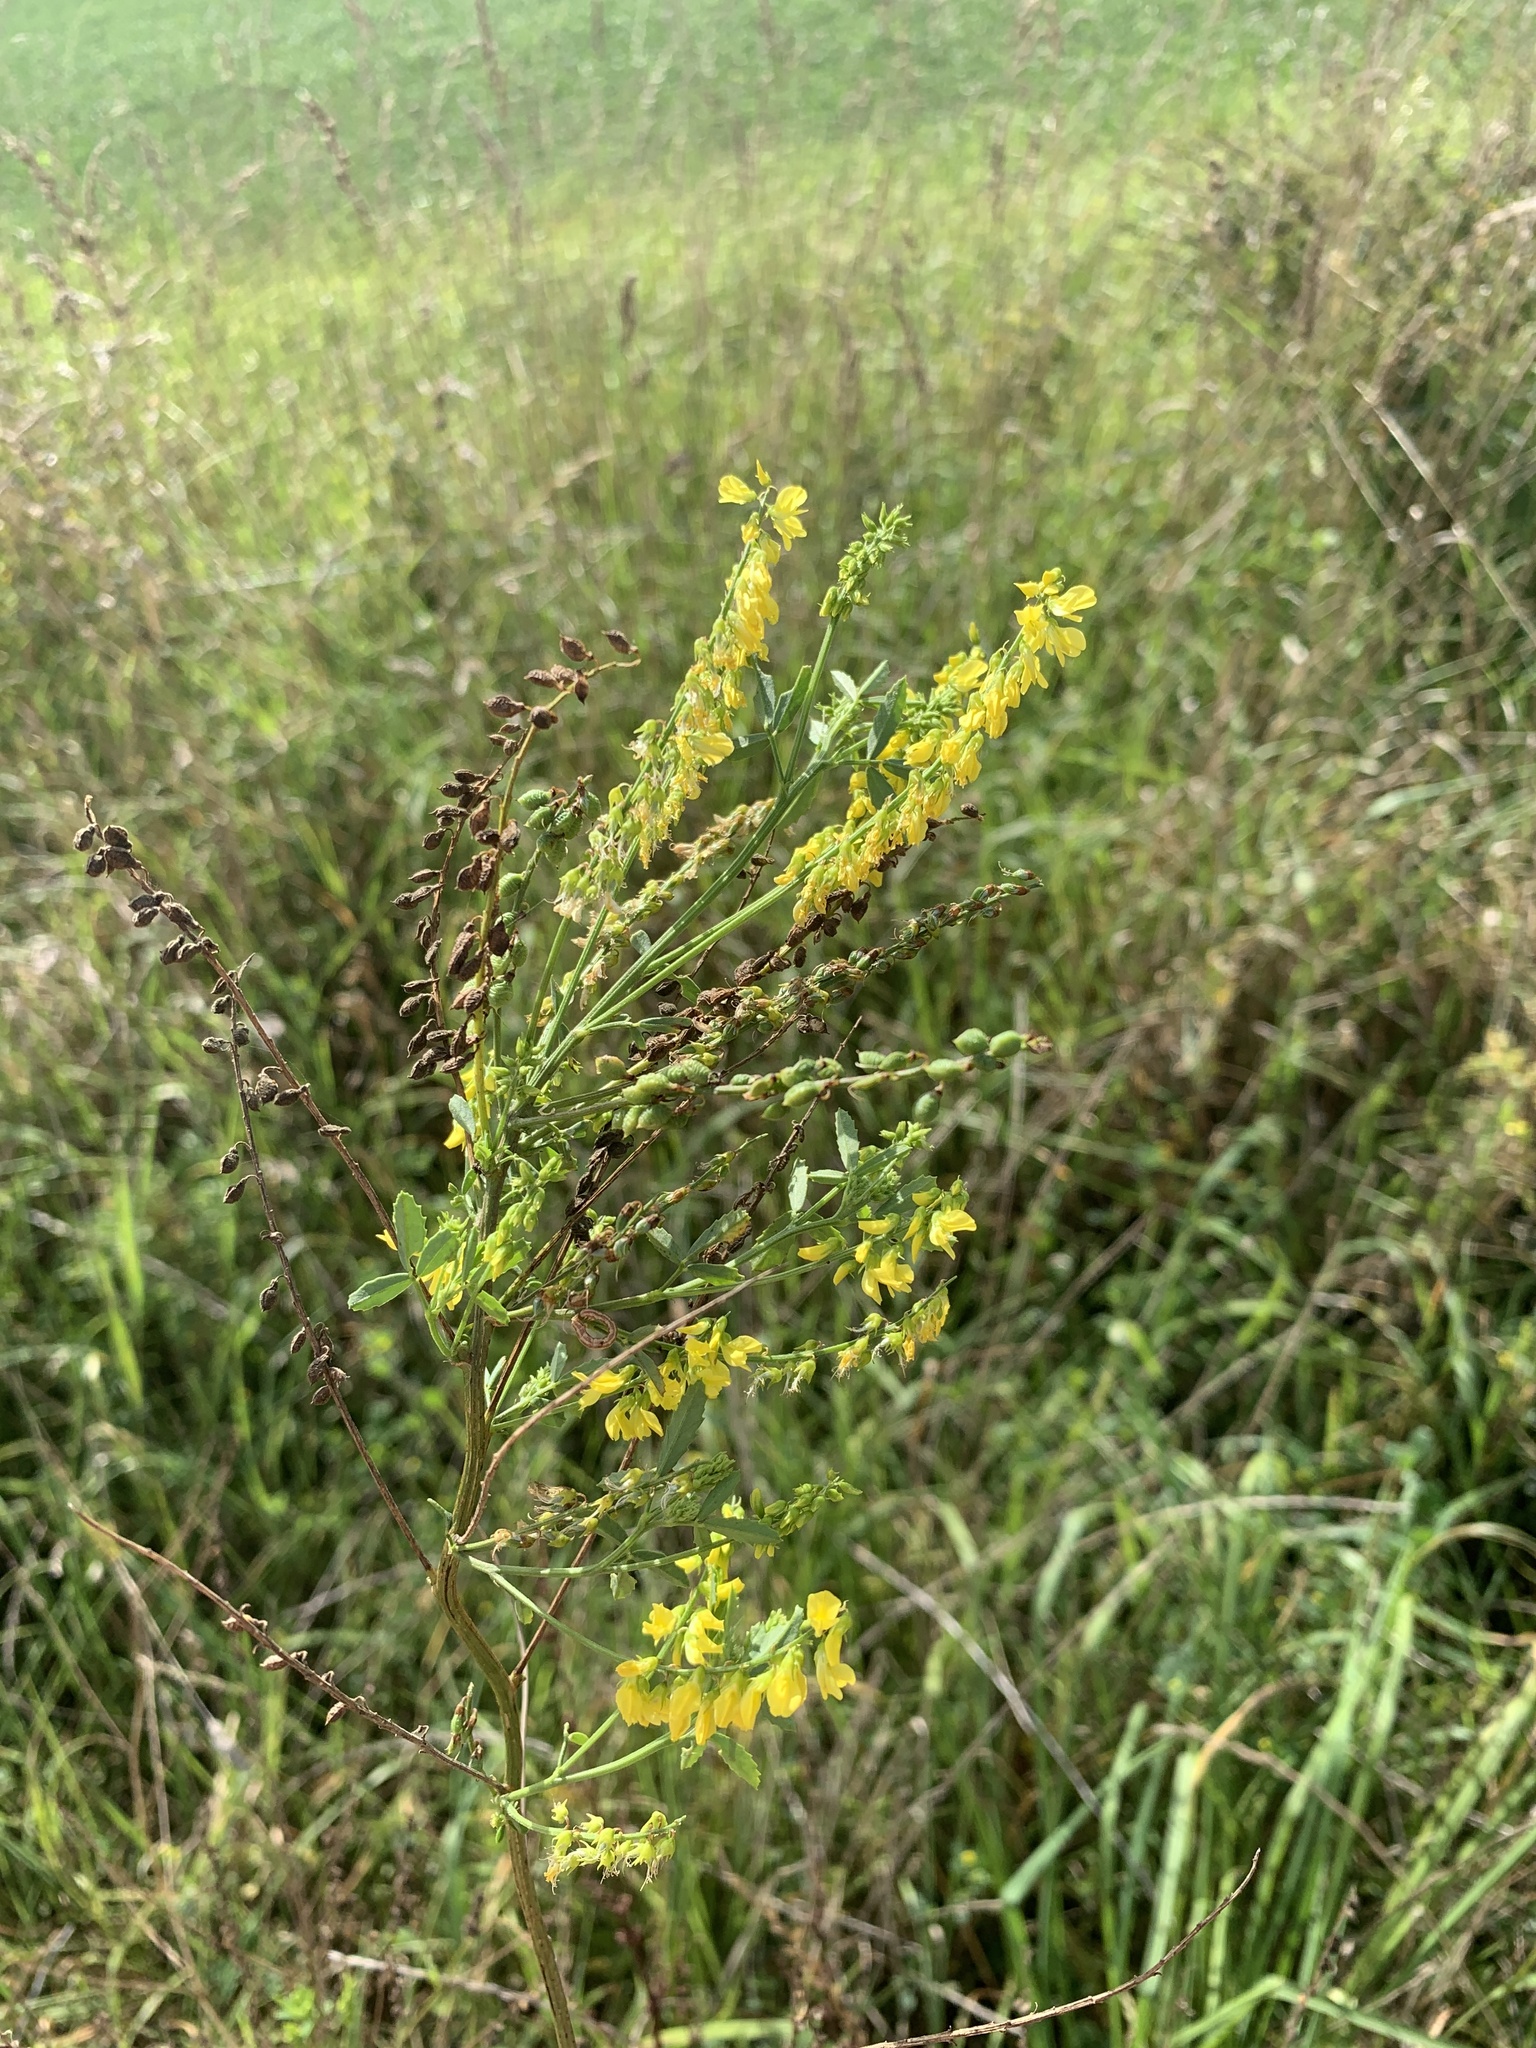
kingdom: Plantae
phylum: Tracheophyta
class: Magnoliopsida
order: Fabales
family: Fabaceae
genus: Melilotus
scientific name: Melilotus officinalis
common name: Sweetclover
